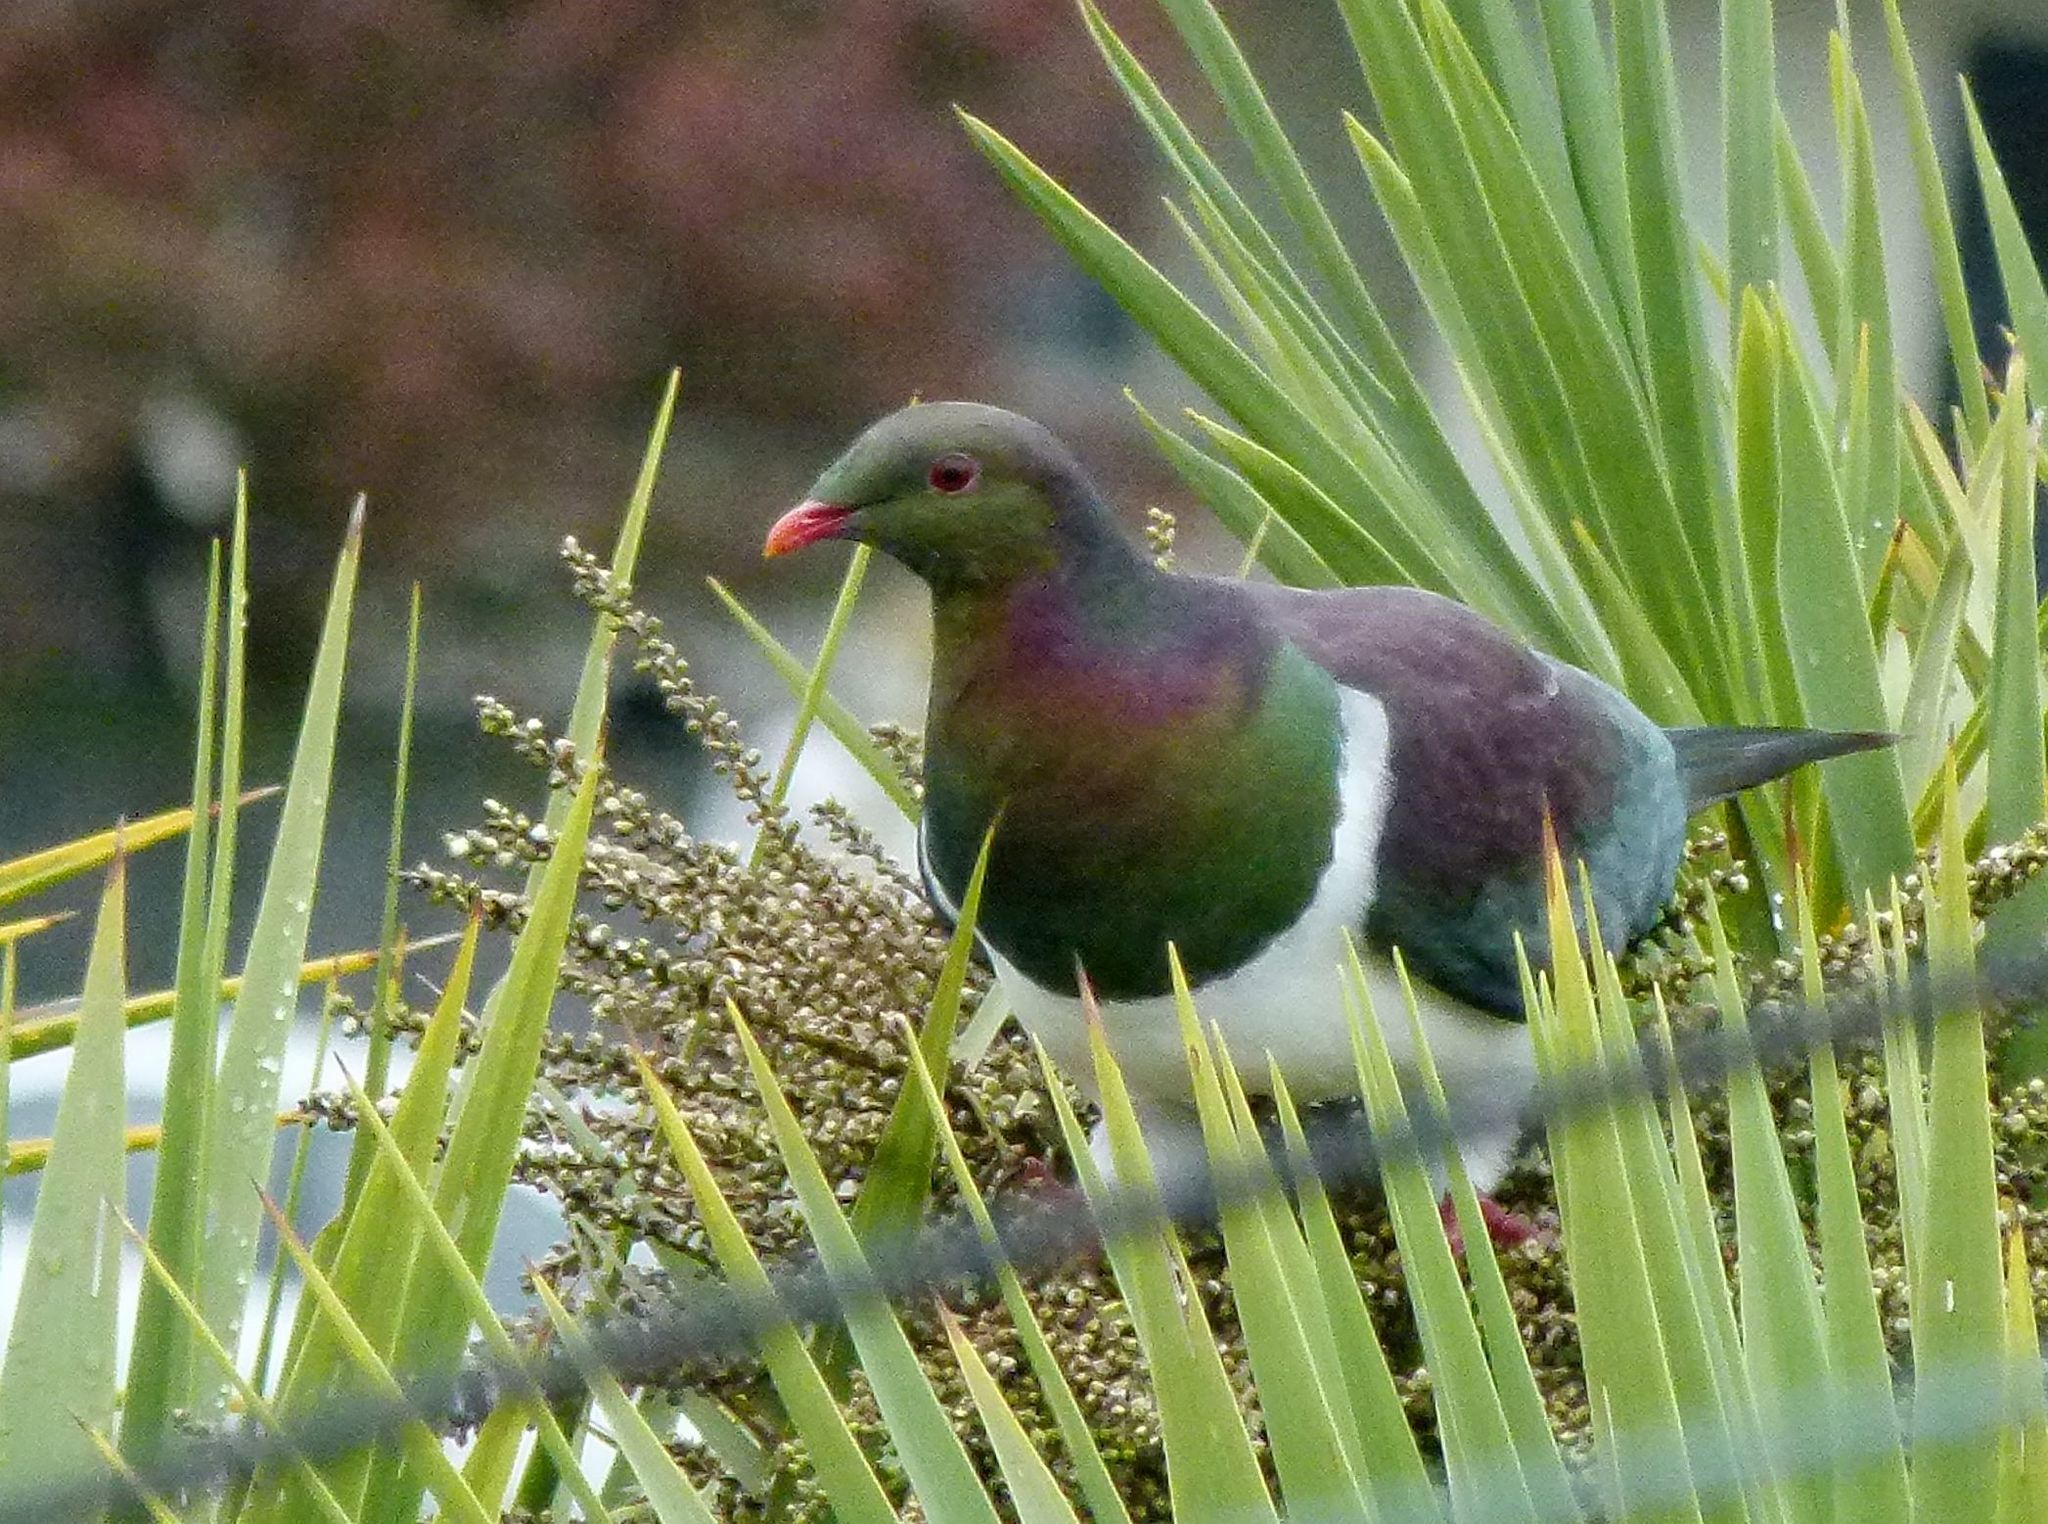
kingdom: Animalia
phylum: Chordata
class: Aves
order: Columbiformes
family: Columbidae
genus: Hemiphaga
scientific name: Hemiphaga novaeseelandiae
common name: New zealand pigeon
